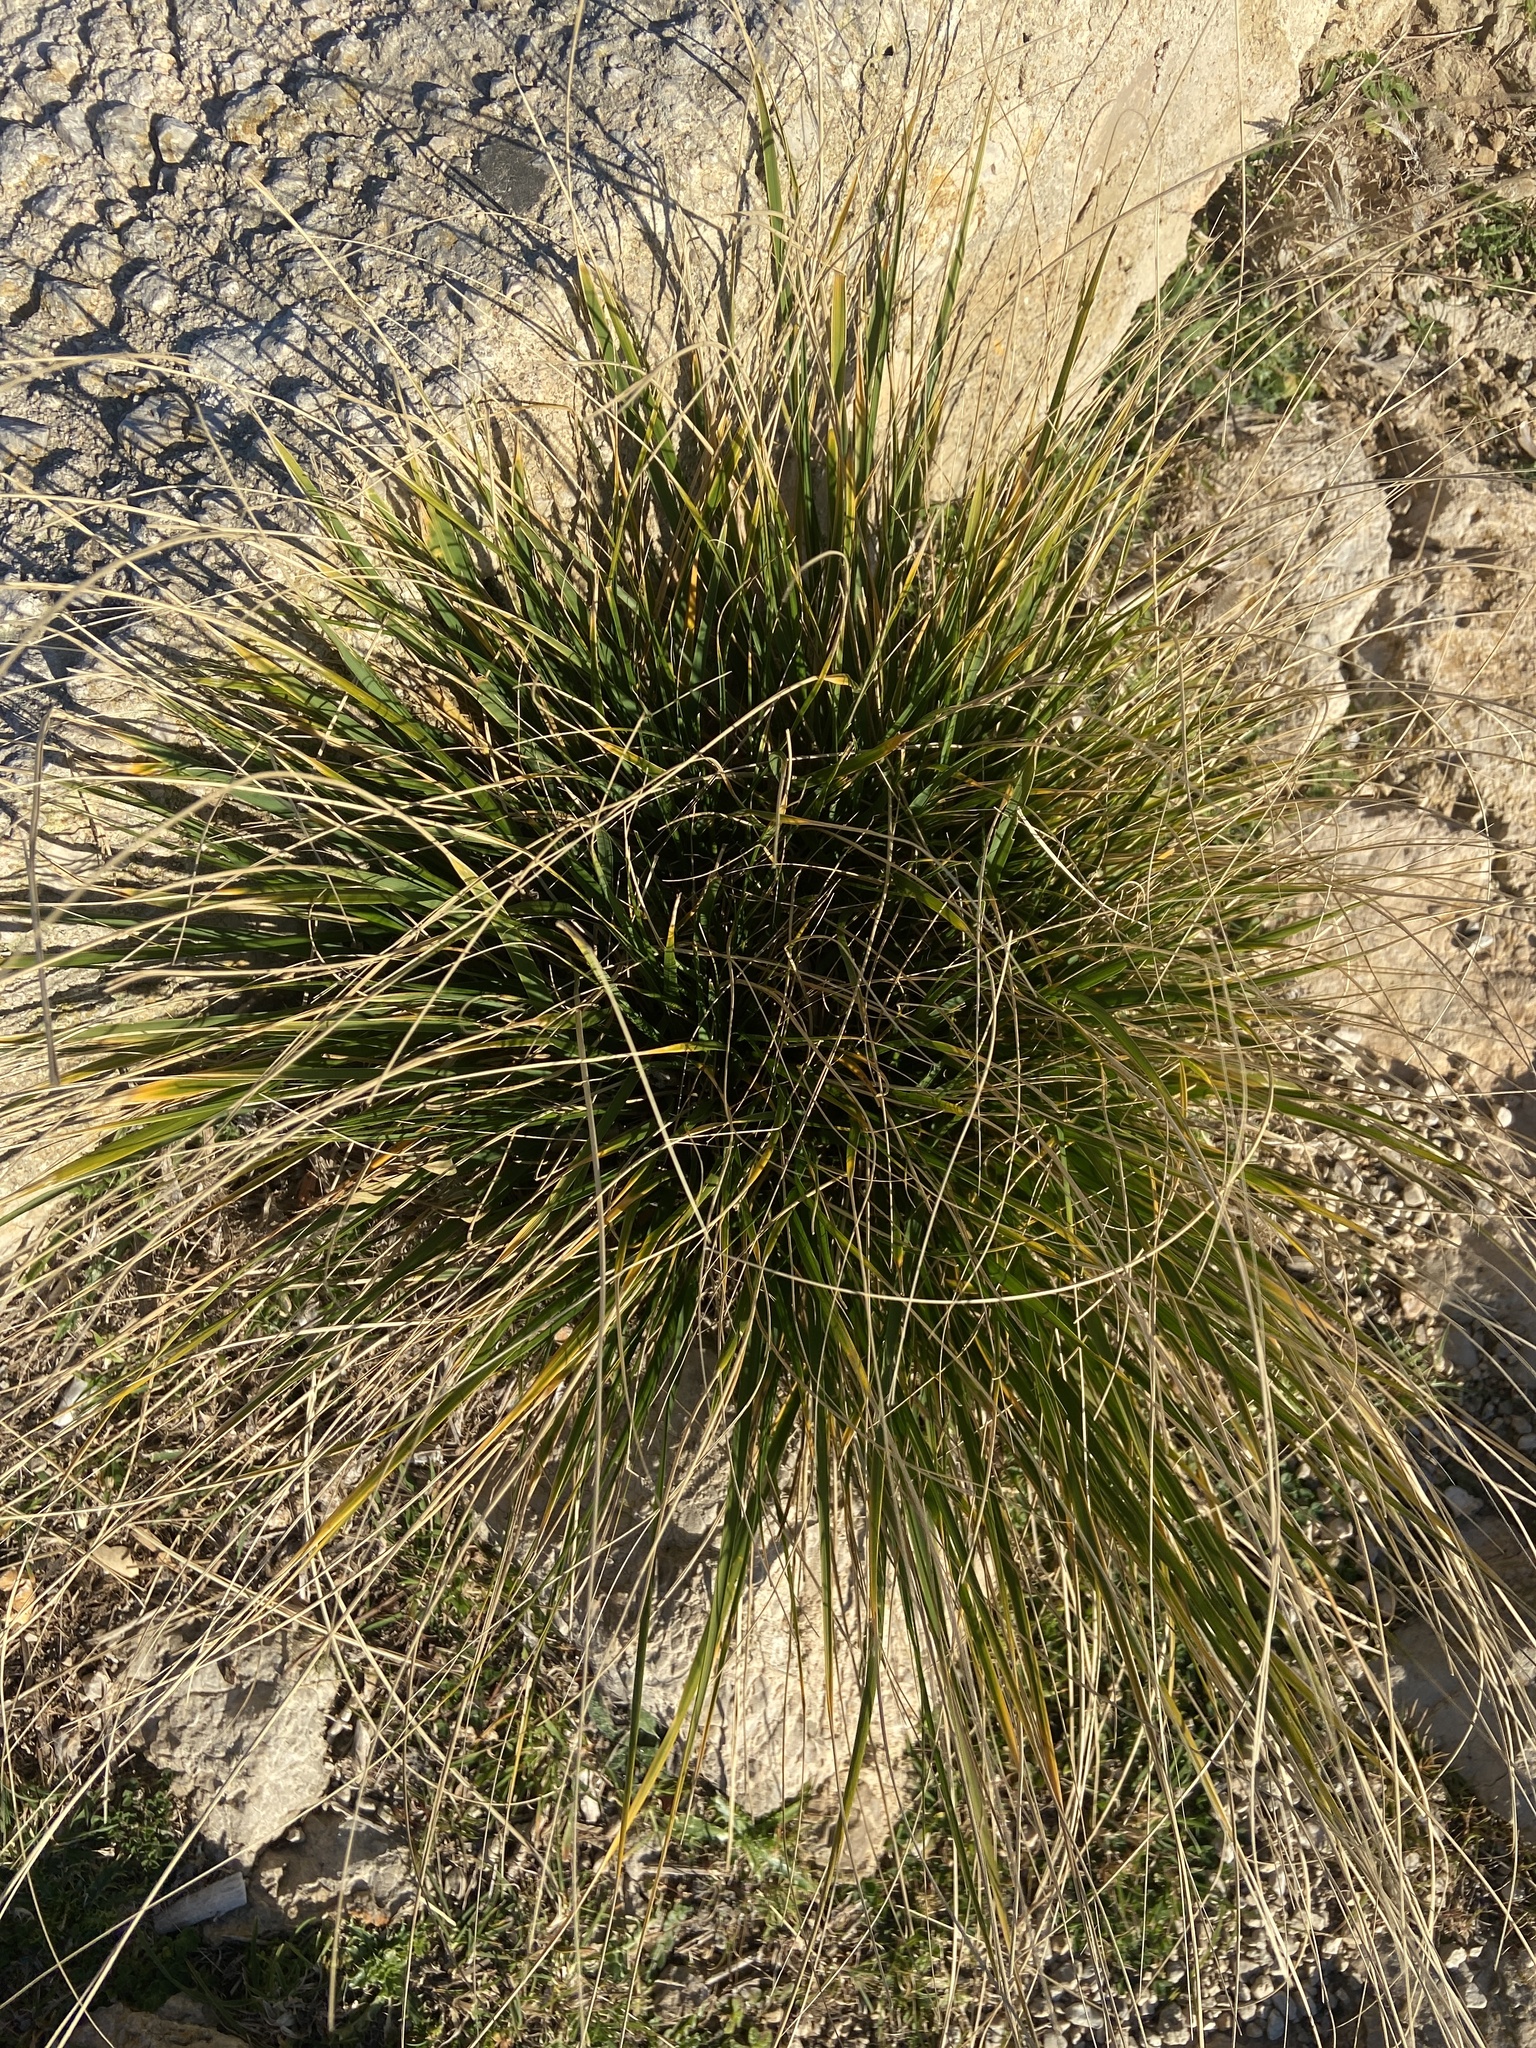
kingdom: Plantae
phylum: Tracheophyta
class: Liliopsida
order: Poales
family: Poaceae
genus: Ampelodesmos
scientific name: Ampelodesmos mauritanicus
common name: Mauritanian grass
